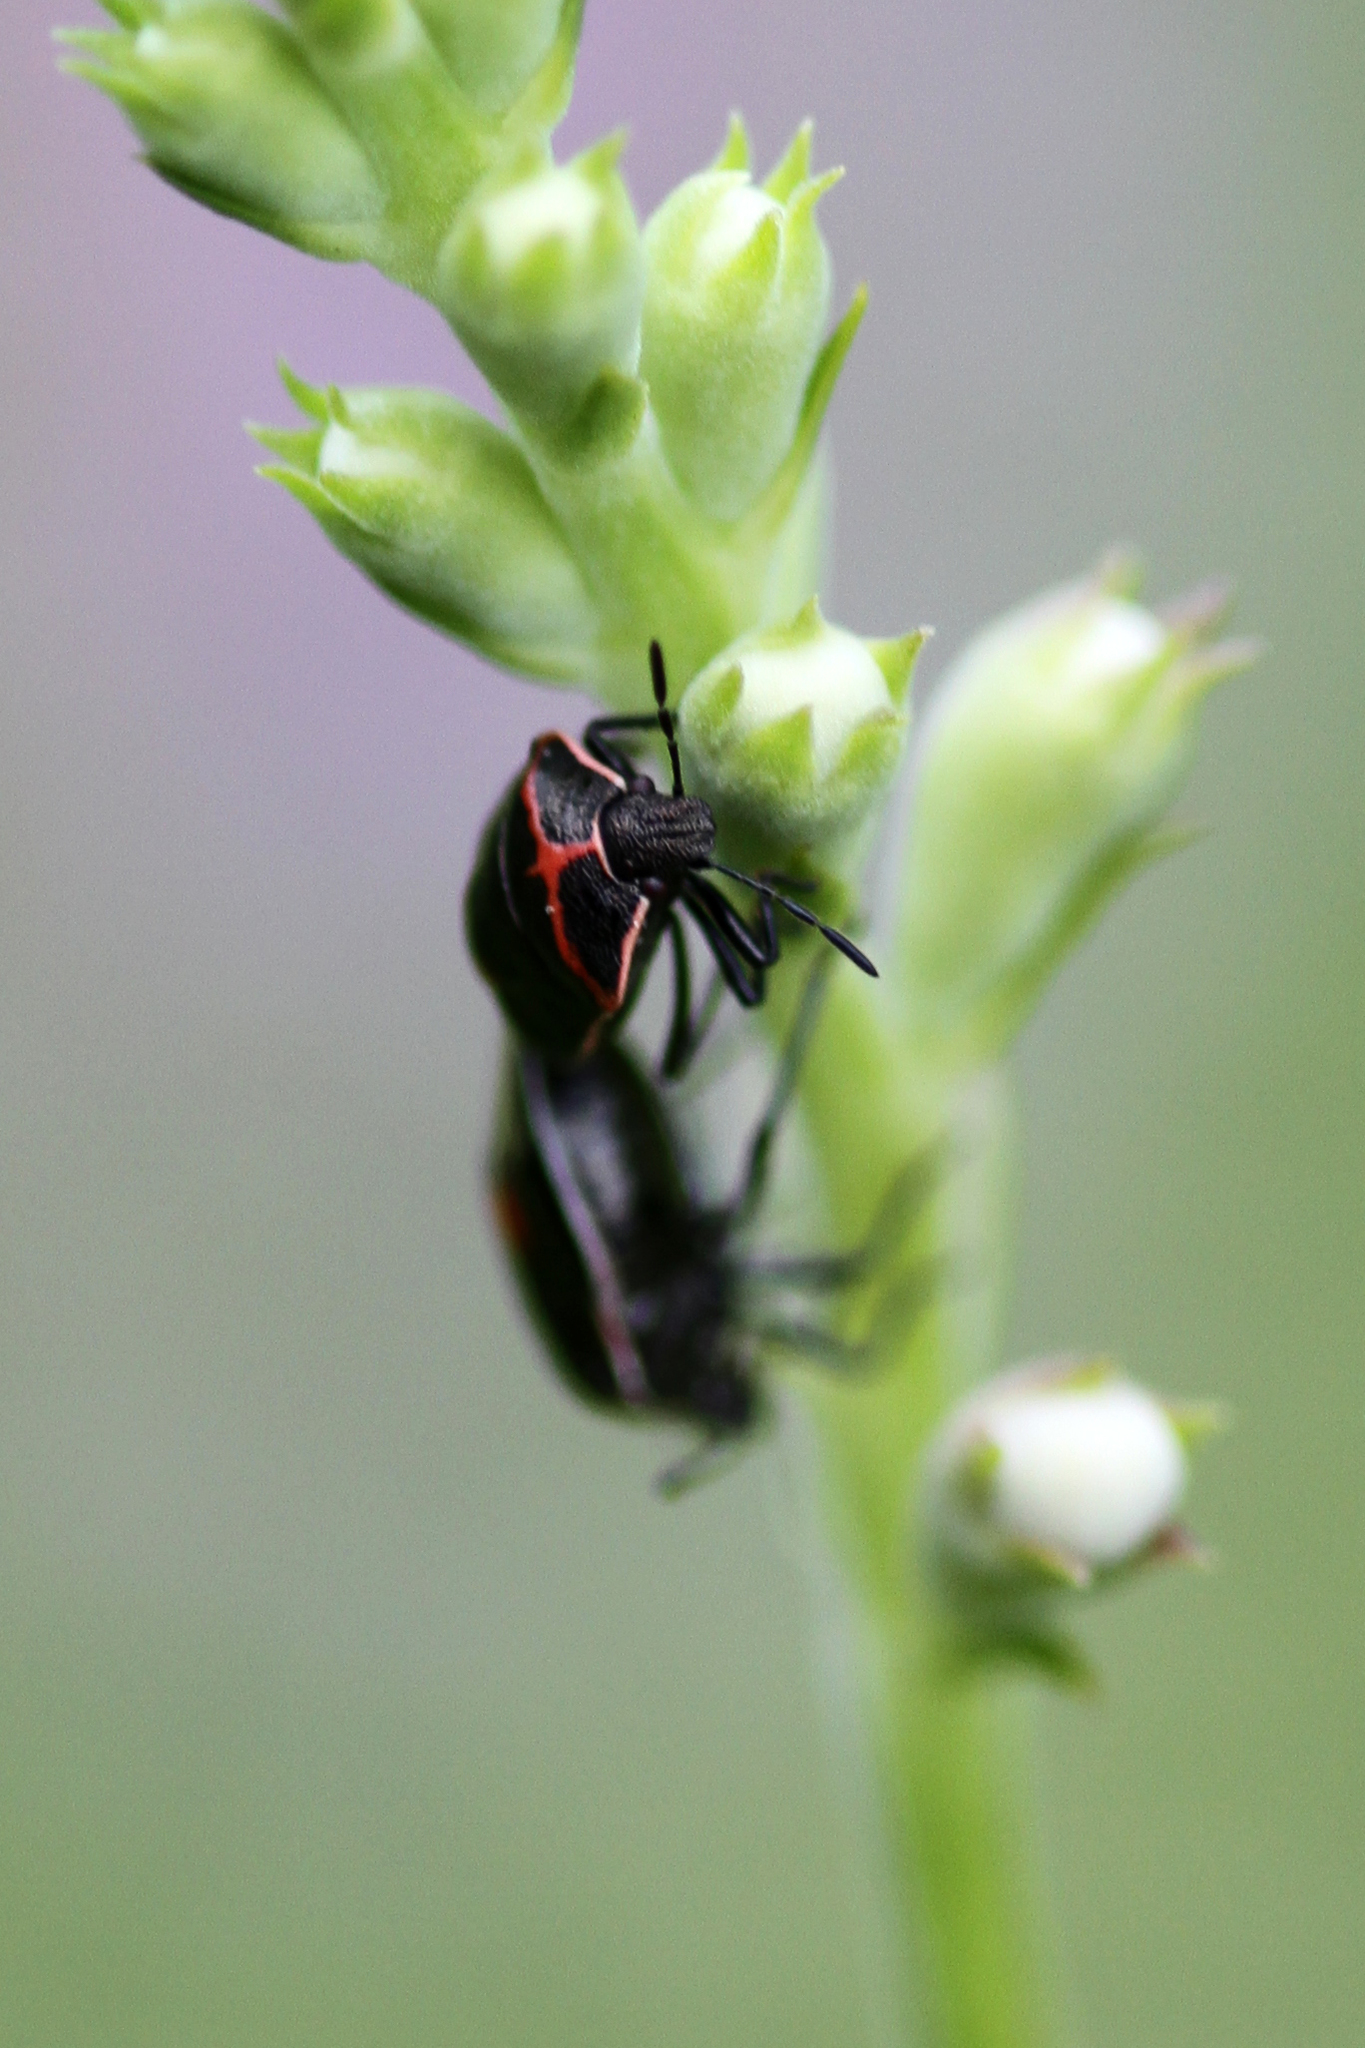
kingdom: Animalia
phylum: Arthropoda
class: Insecta
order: Hemiptera
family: Pentatomidae
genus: Cosmopepla
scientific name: Cosmopepla lintneriana
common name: Twice-stabbed stink bug
